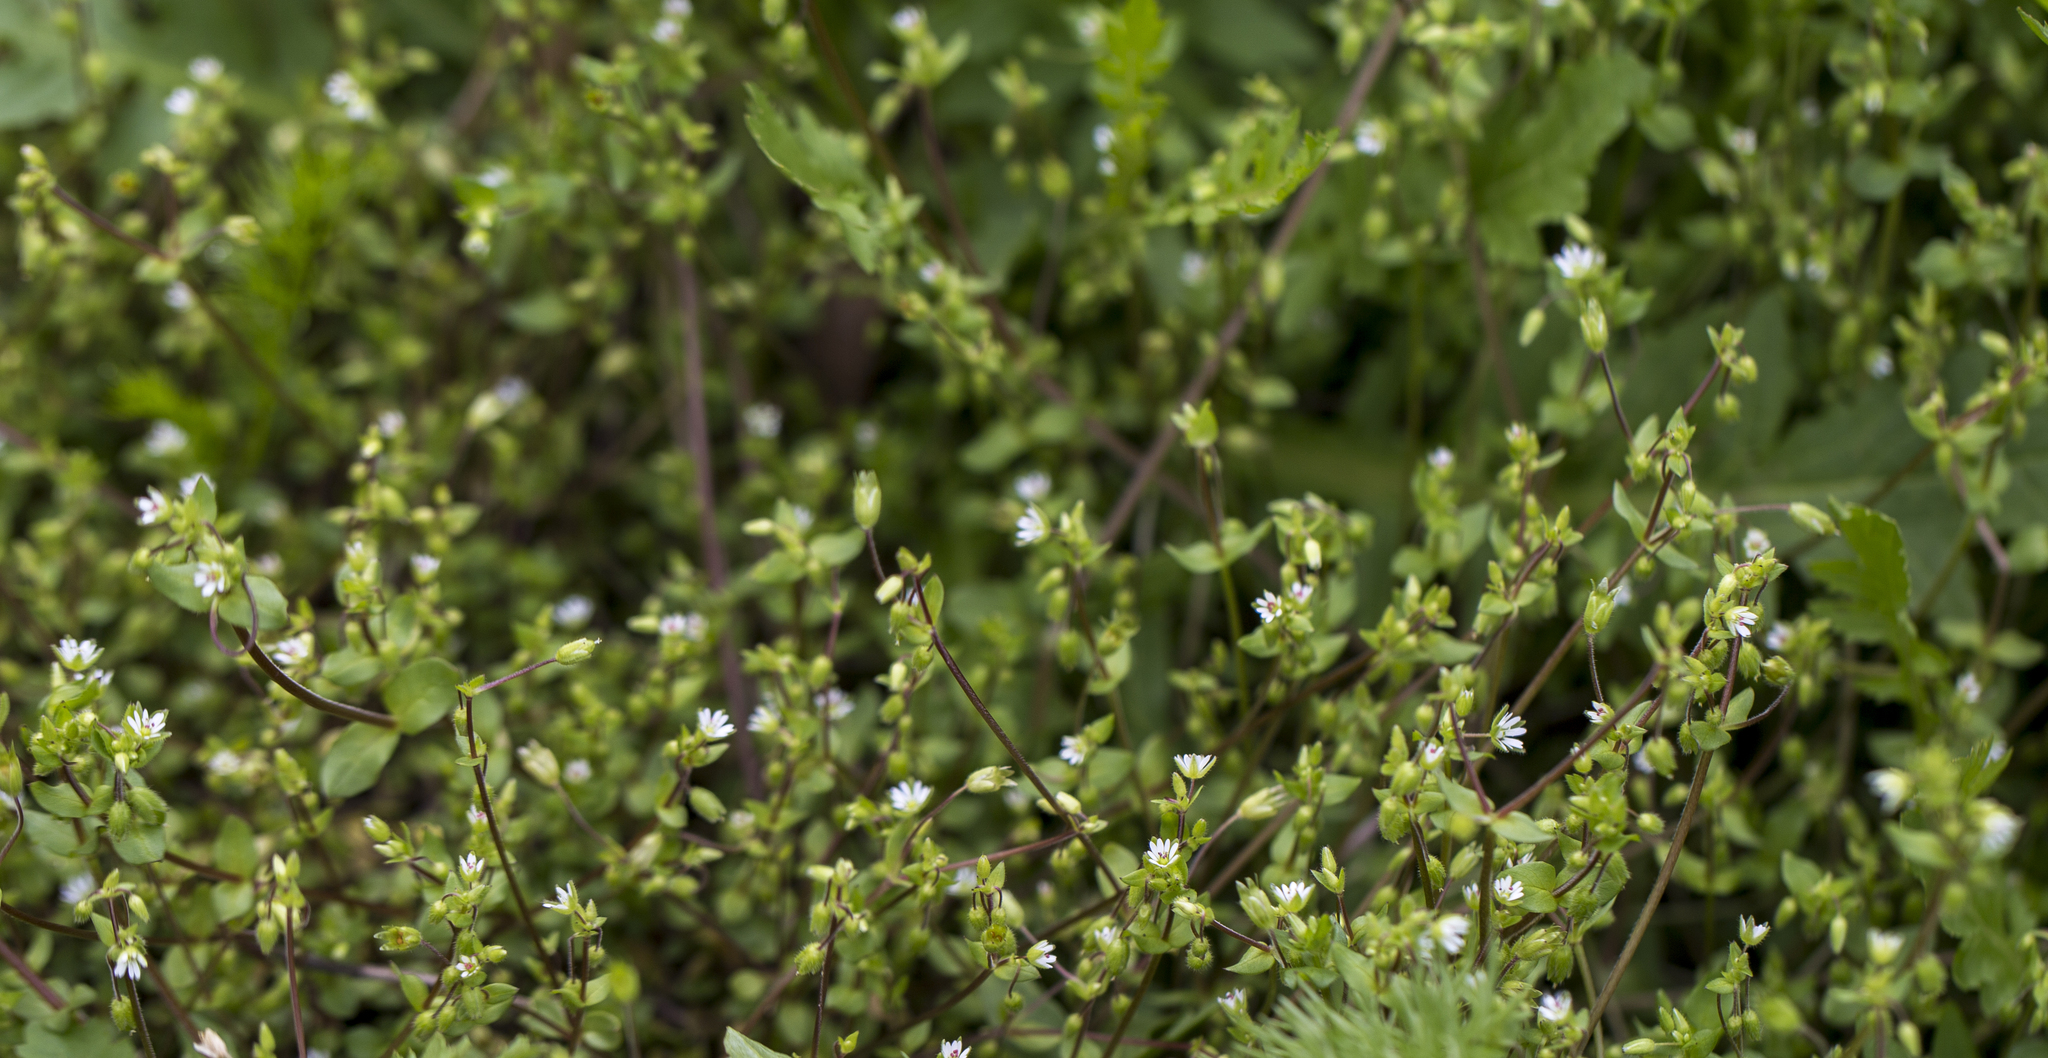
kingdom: Plantae
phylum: Tracheophyta
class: Magnoliopsida
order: Caryophyllales
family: Caryophyllaceae
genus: Stellaria
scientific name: Stellaria media
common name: Common chickweed
